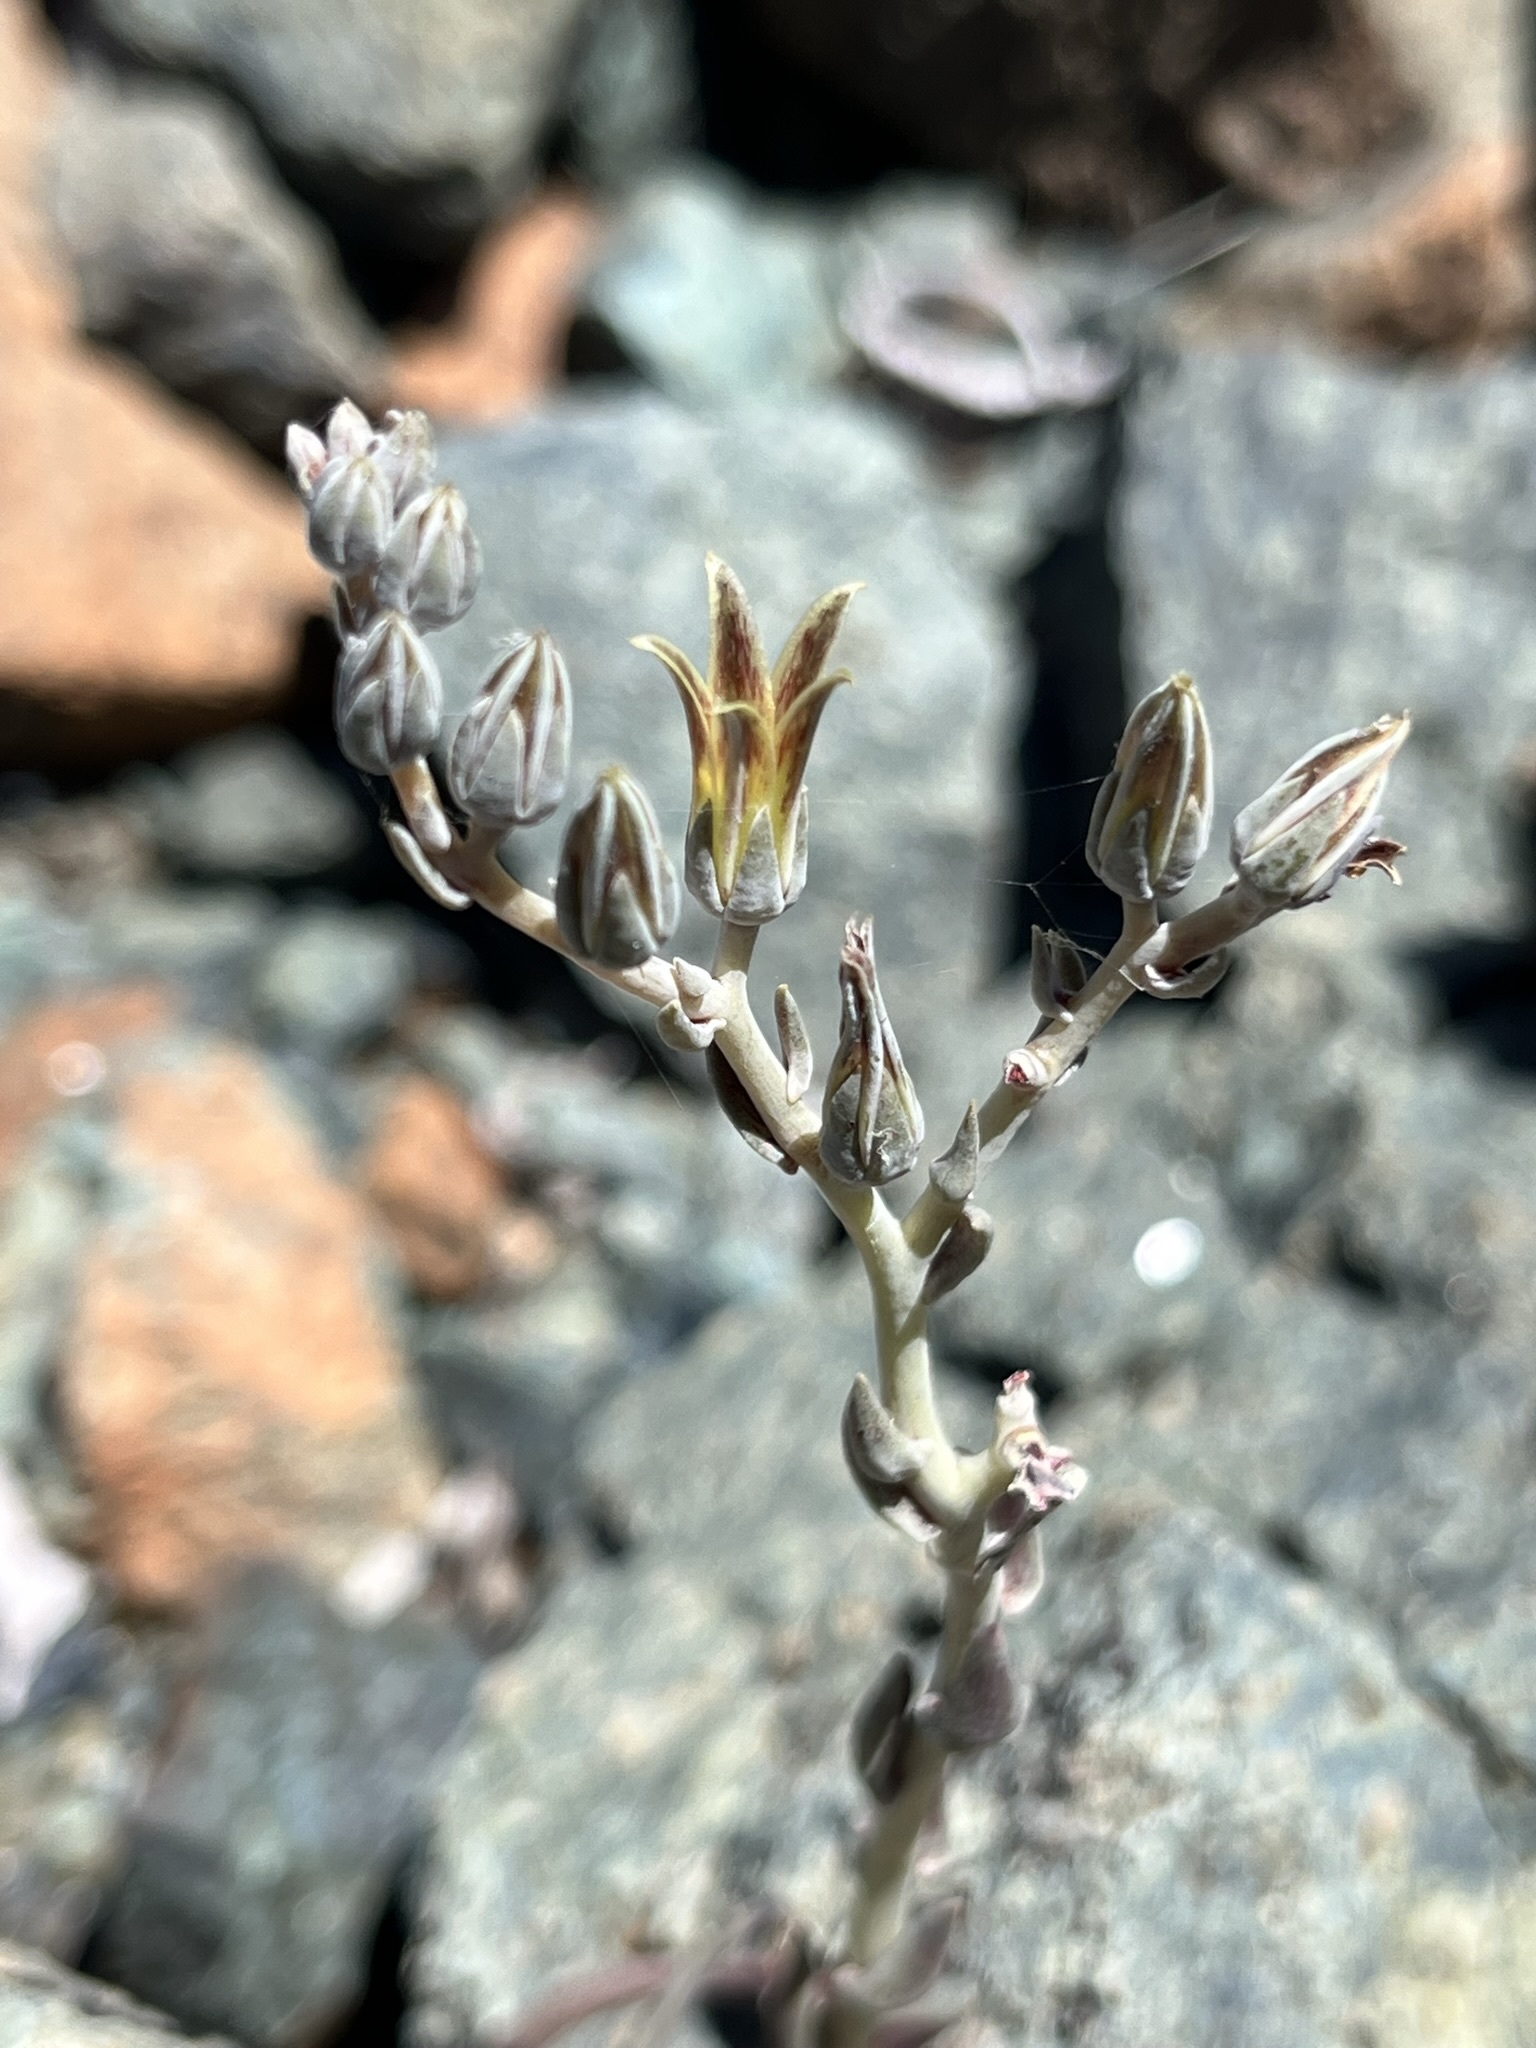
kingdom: Plantae
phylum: Tracheophyta
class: Magnoliopsida
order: Saxifragales
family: Crassulaceae
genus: Dudleya
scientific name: Dudleya abramsii
